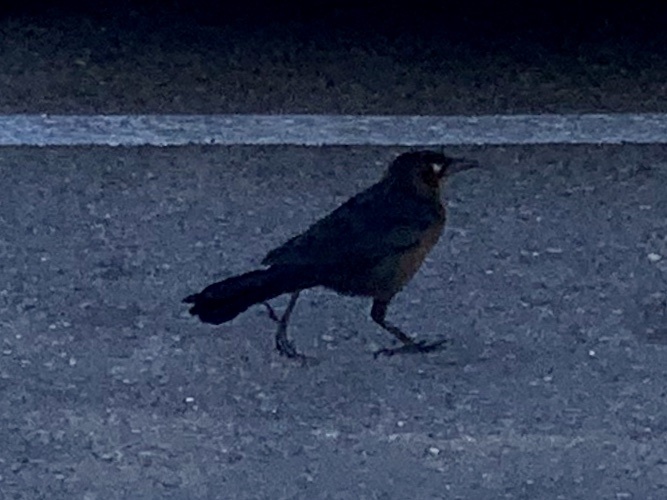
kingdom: Animalia
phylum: Chordata
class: Aves
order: Passeriformes
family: Icteridae
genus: Quiscalus
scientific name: Quiscalus mexicanus
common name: Great-tailed grackle
